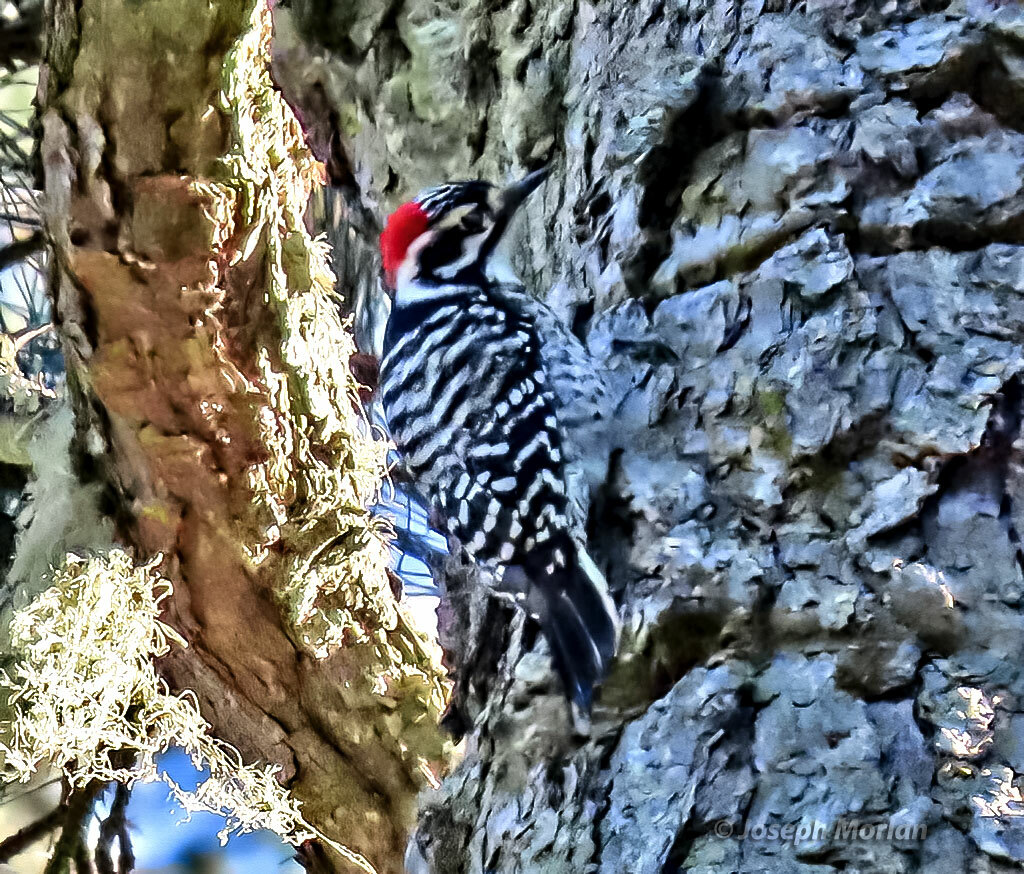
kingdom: Animalia
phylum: Chordata
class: Aves
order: Piciformes
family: Picidae
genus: Dryobates
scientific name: Dryobates nuttallii
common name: Nuttall's woodpecker
